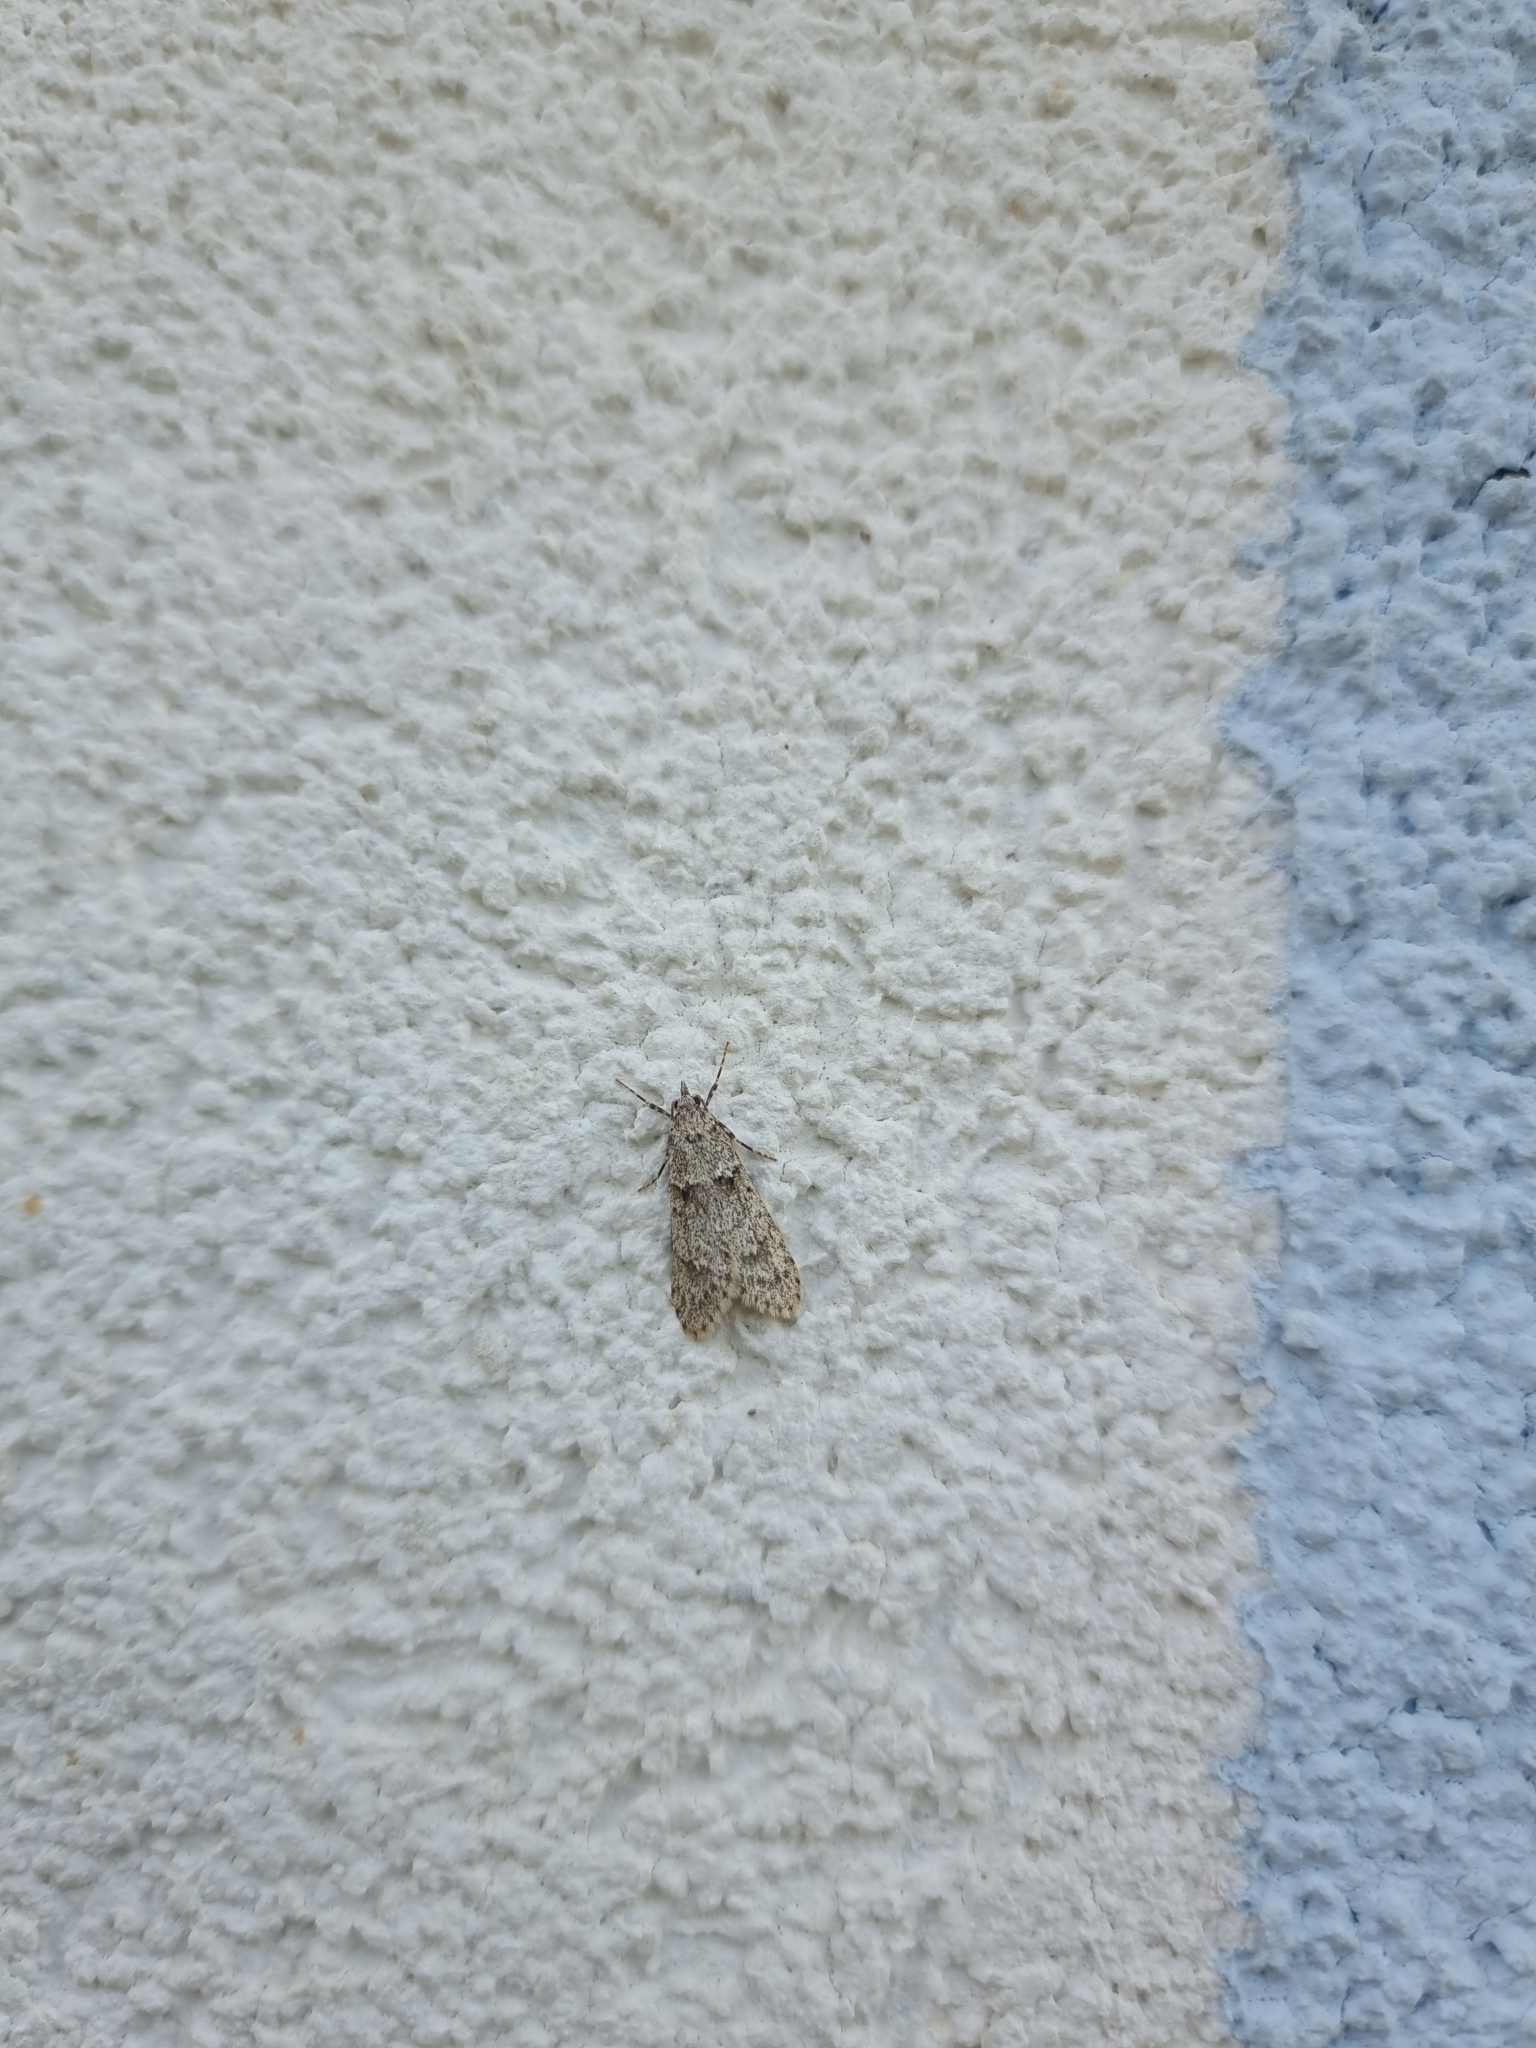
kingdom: Animalia
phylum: Arthropoda
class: Insecta
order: Lepidoptera
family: Lypusidae
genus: Diurnea
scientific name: Diurnea fagella
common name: March tubic
